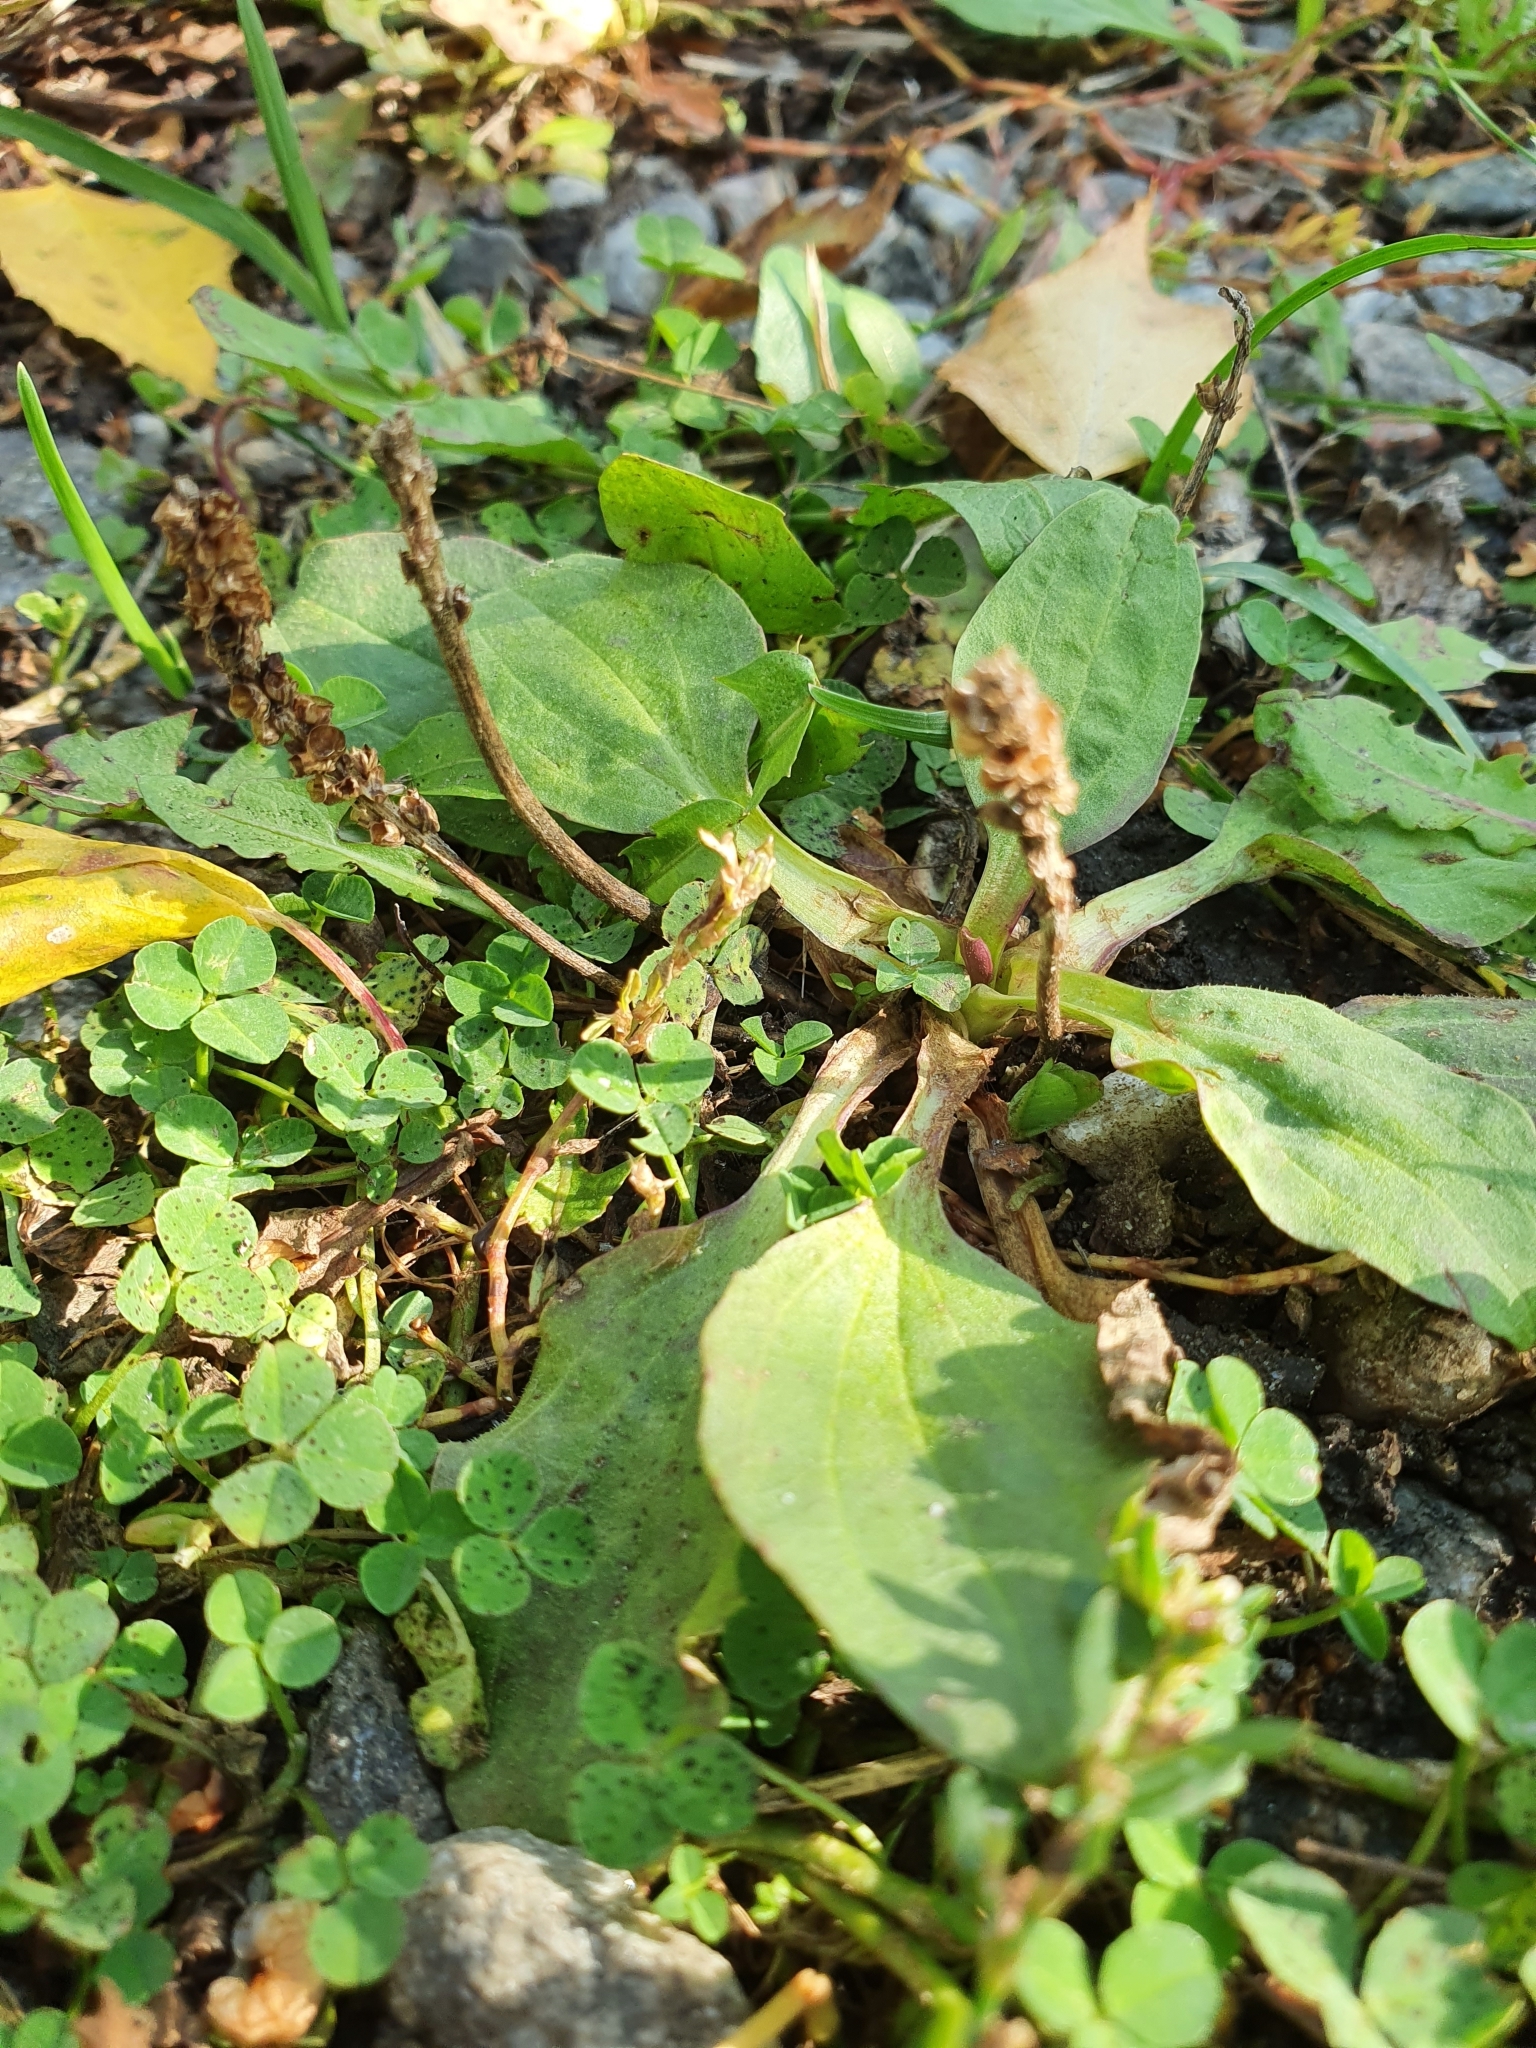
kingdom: Plantae
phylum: Tracheophyta
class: Magnoliopsida
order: Lamiales
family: Plantaginaceae
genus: Plantago
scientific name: Plantago major
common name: Common plantain
